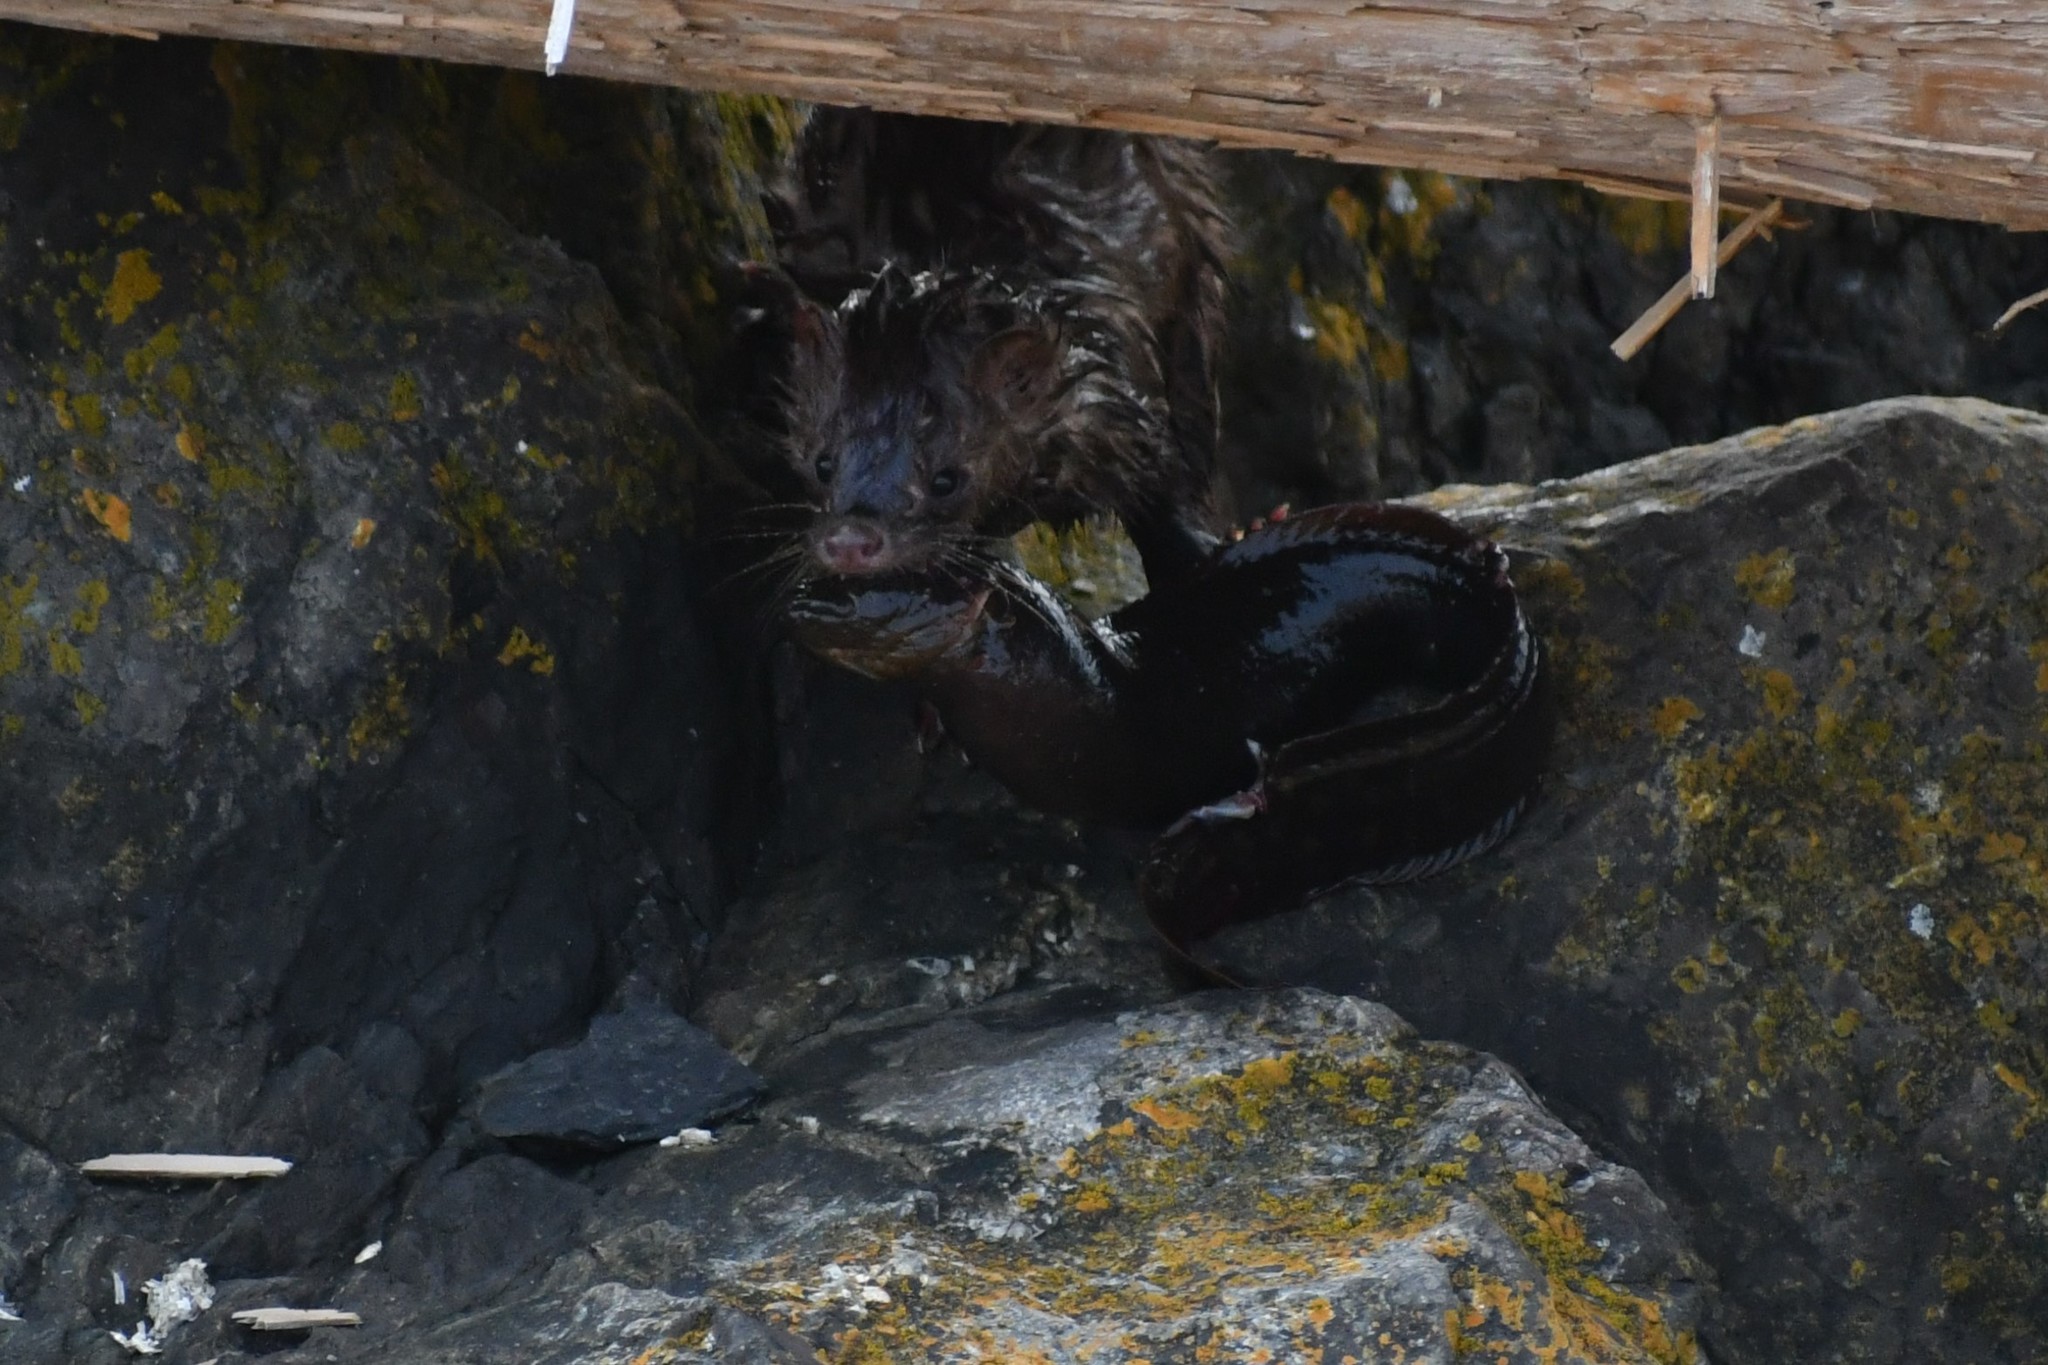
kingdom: Animalia
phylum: Chordata
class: Mammalia
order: Carnivora
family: Mustelidae
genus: Mustela
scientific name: Mustela
